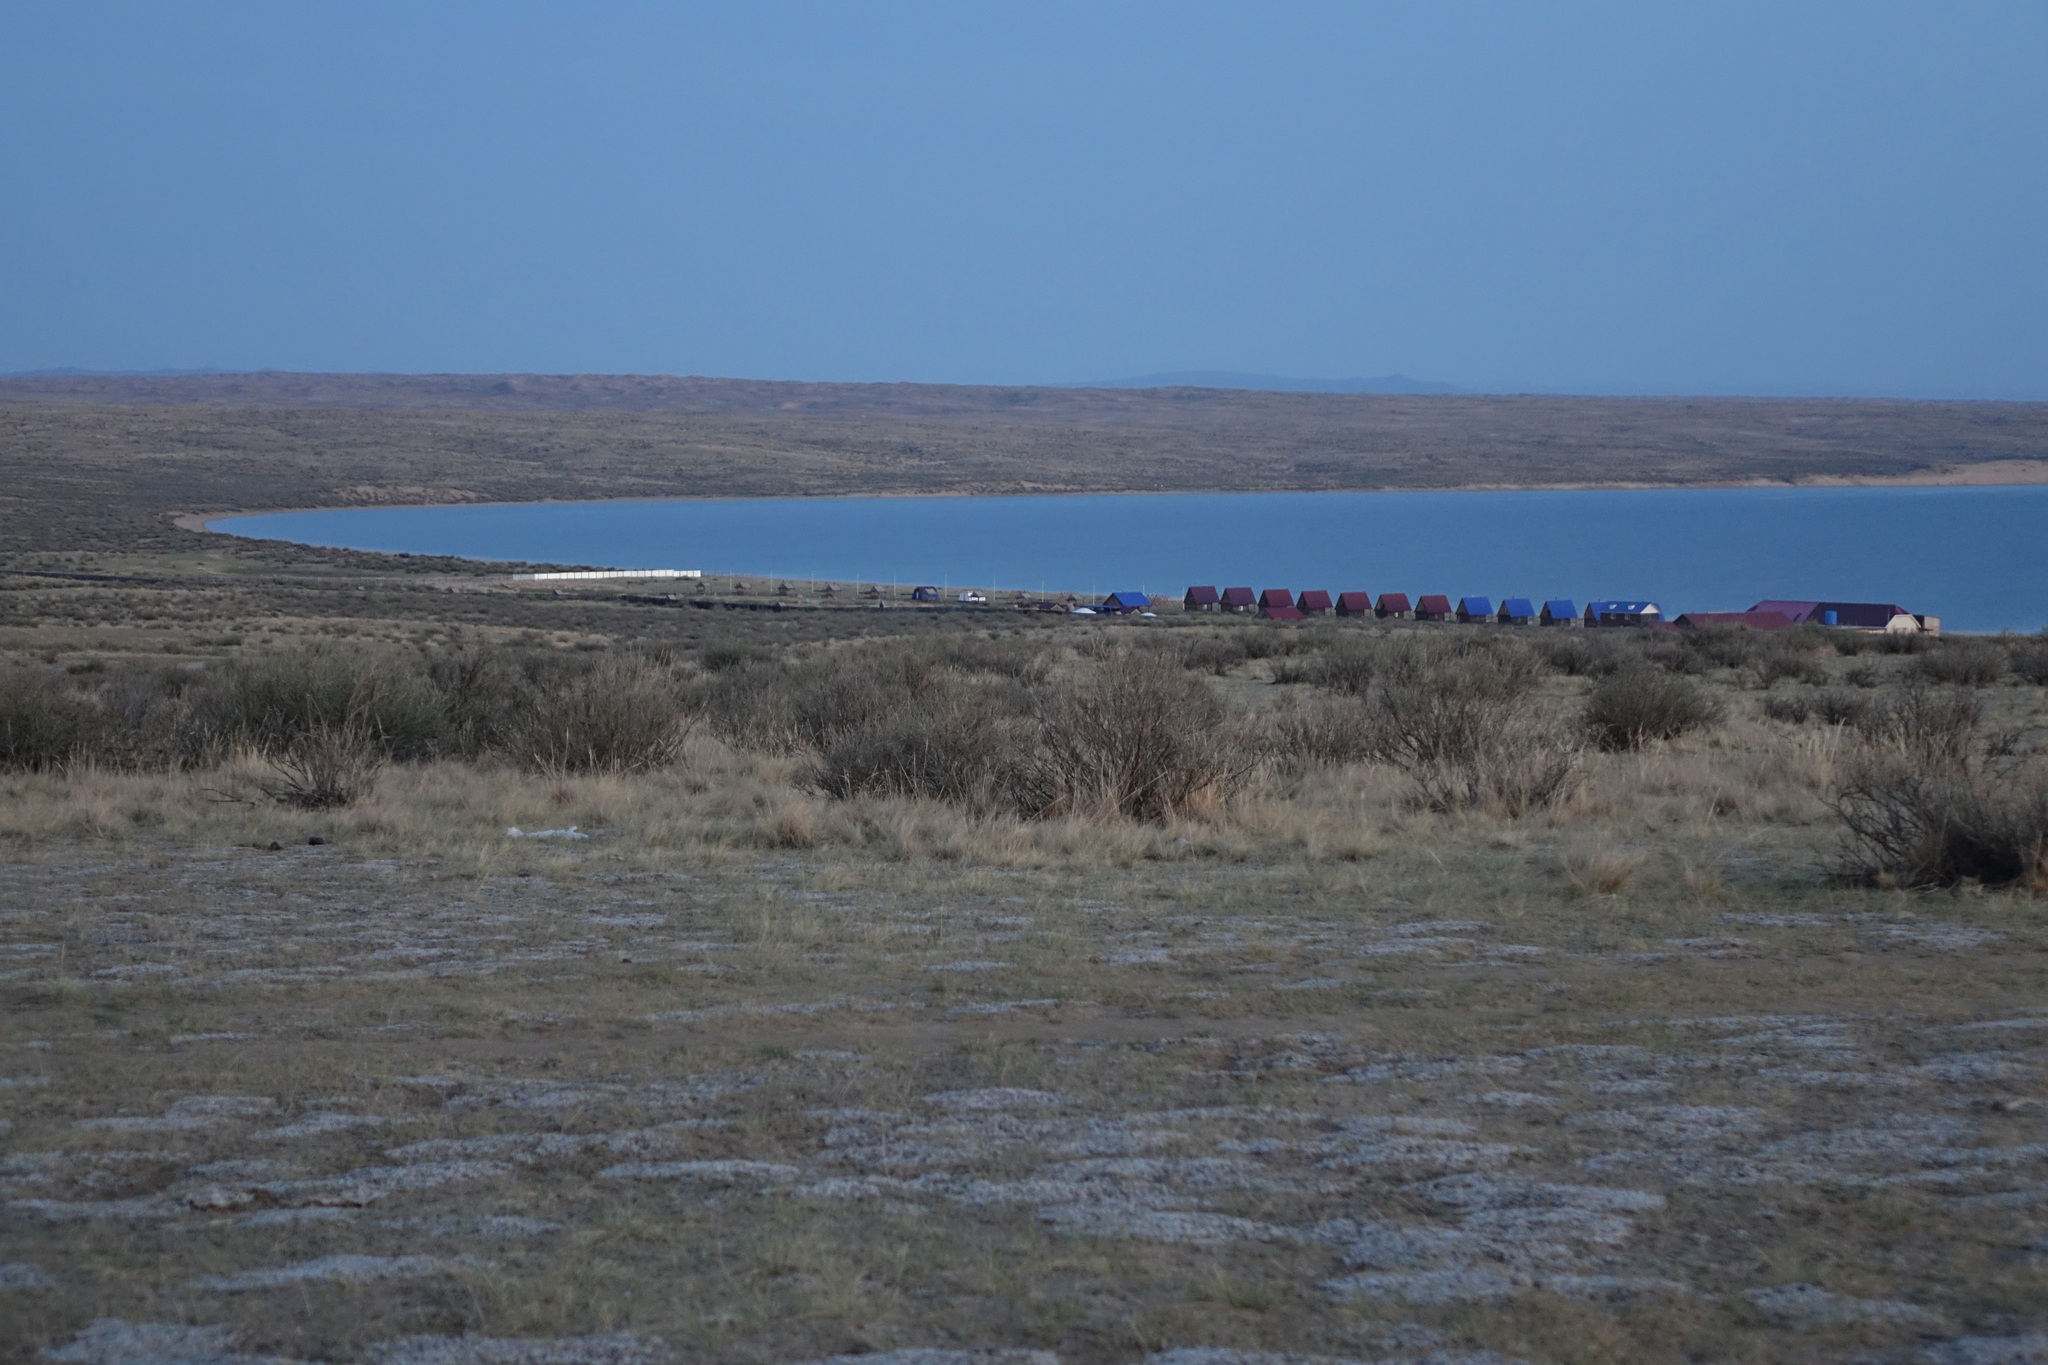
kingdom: Plantae
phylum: Tracheophyta
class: Magnoliopsida
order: Fabales
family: Fabaceae
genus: Caragana
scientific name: Caragana bungei
